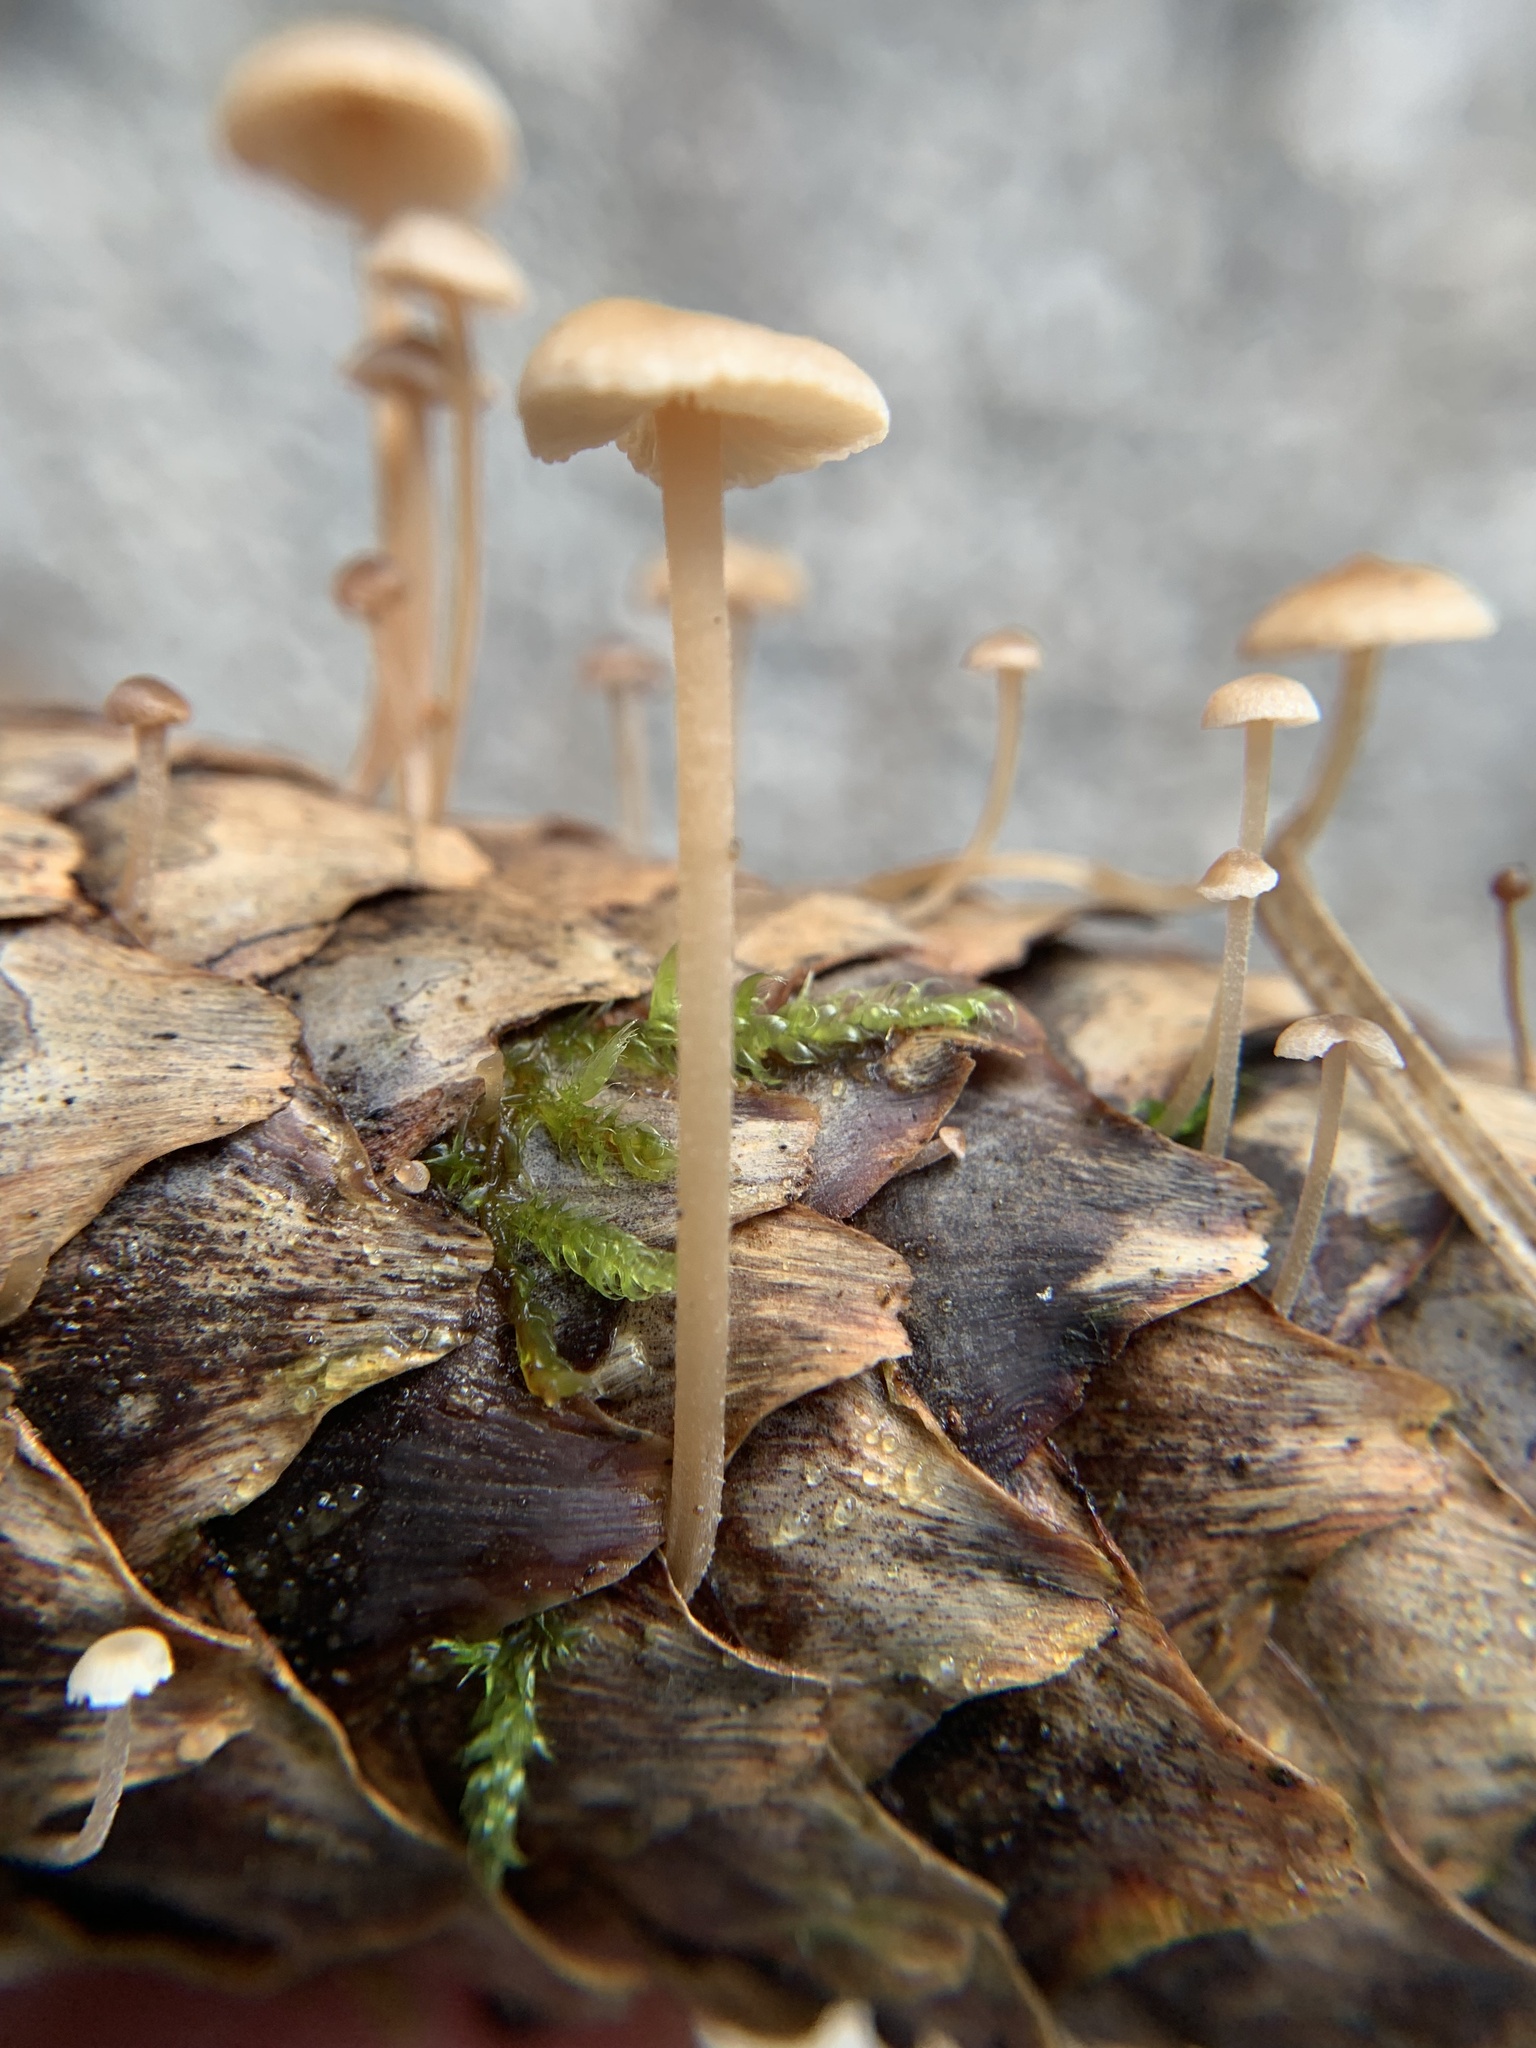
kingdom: Fungi
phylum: Basidiomycota
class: Agaricomycetes
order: Agaricales
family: Marasmiaceae
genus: Baeospora
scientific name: Baeospora myosura
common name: Conifercone cap
